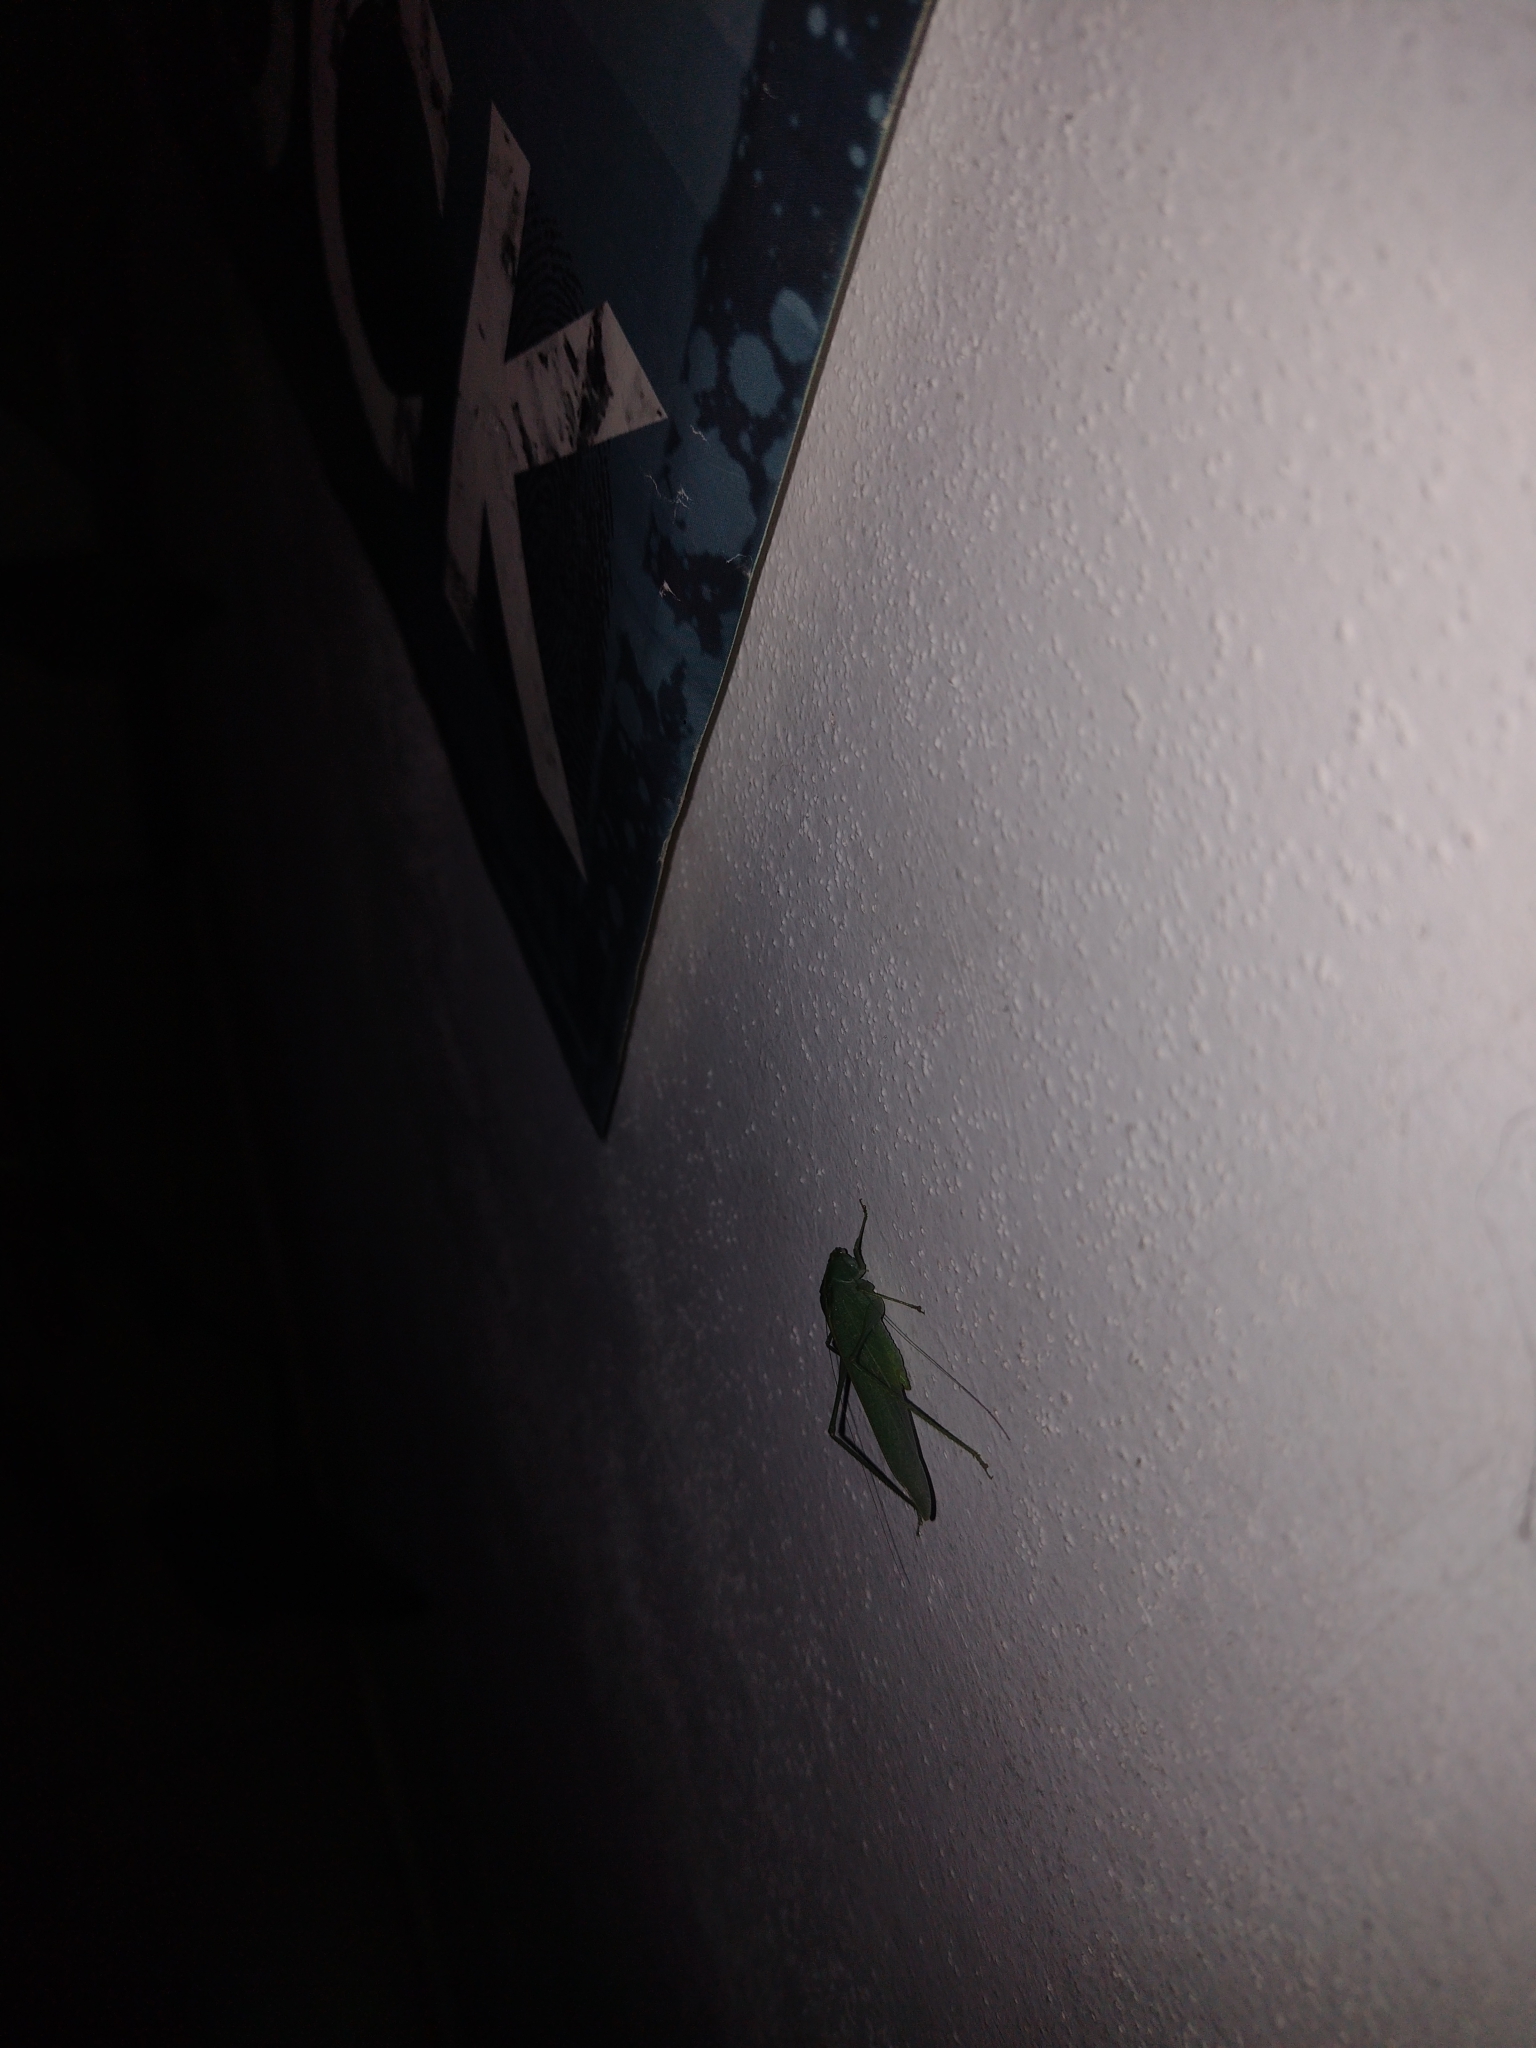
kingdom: Animalia
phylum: Arthropoda
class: Insecta
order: Orthoptera
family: Tettigoniidae
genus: Grammadera
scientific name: Grammadera clara
